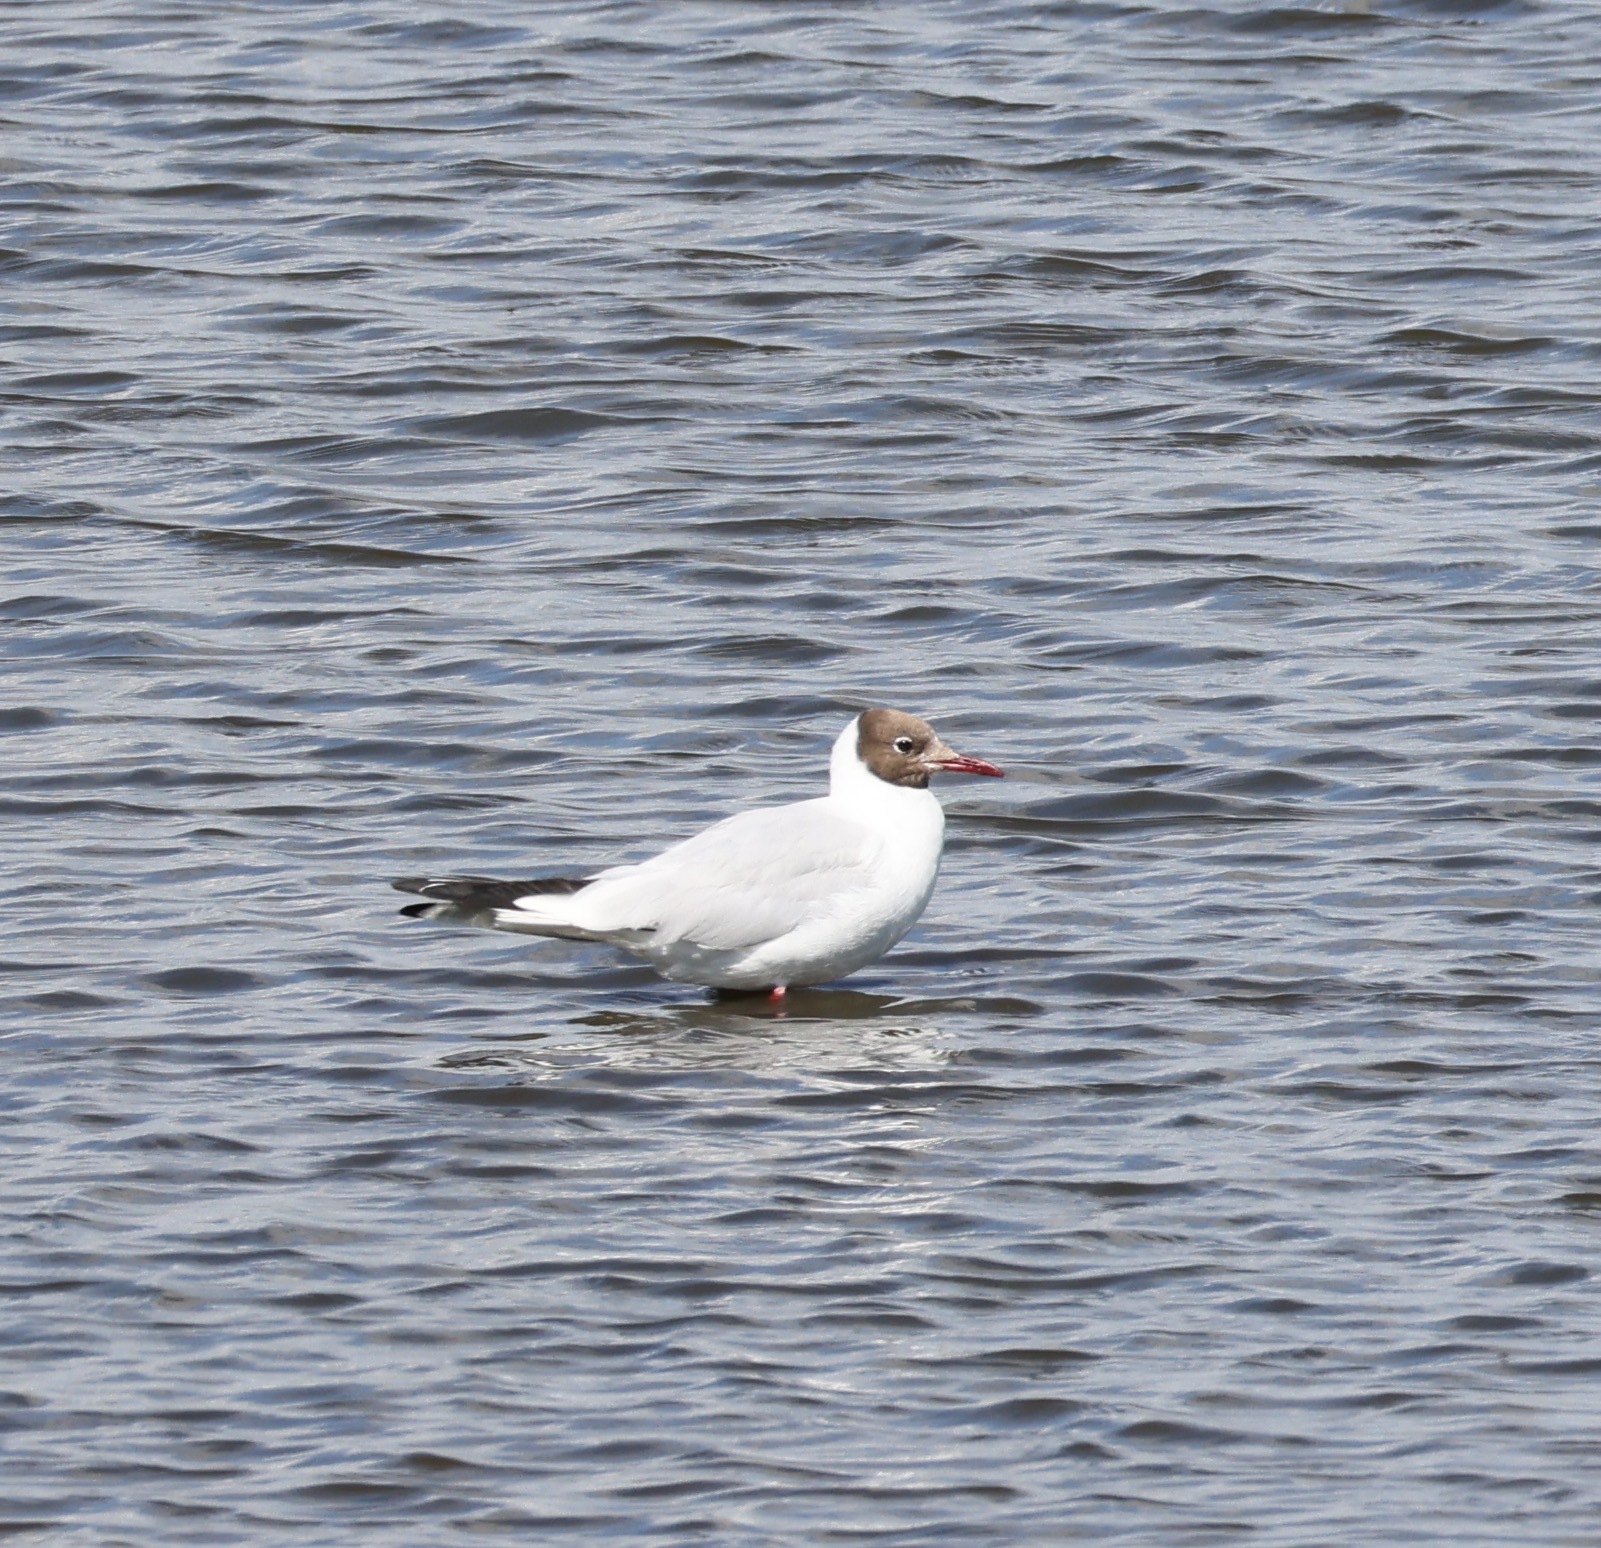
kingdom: Animalia
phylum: Chordata
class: Aves
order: Charadriiformes
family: Laridae
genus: Chroicocephalus
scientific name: Chroicocephalus ridibundus
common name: Black-headed gull
